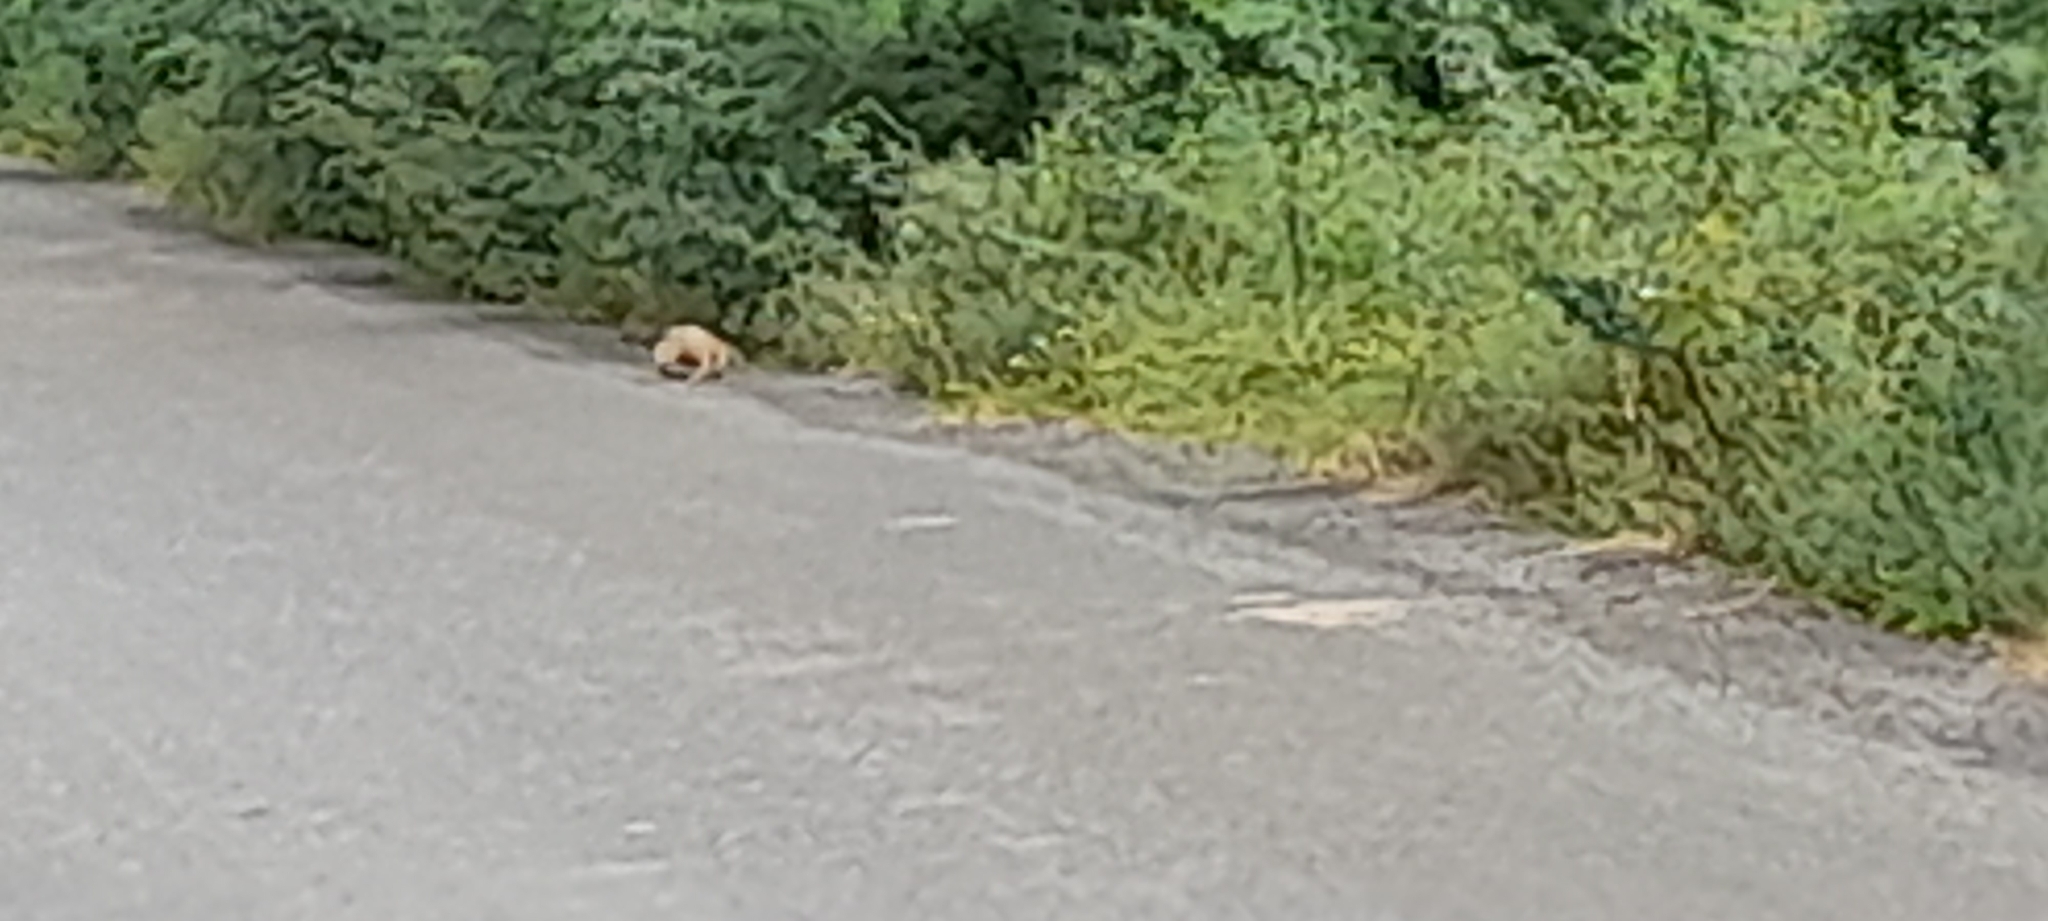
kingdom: Animalia
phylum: Chordata
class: Squamata
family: Varanidae
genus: Varanus
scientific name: Varanus bengalensis
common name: Bengal monitor
